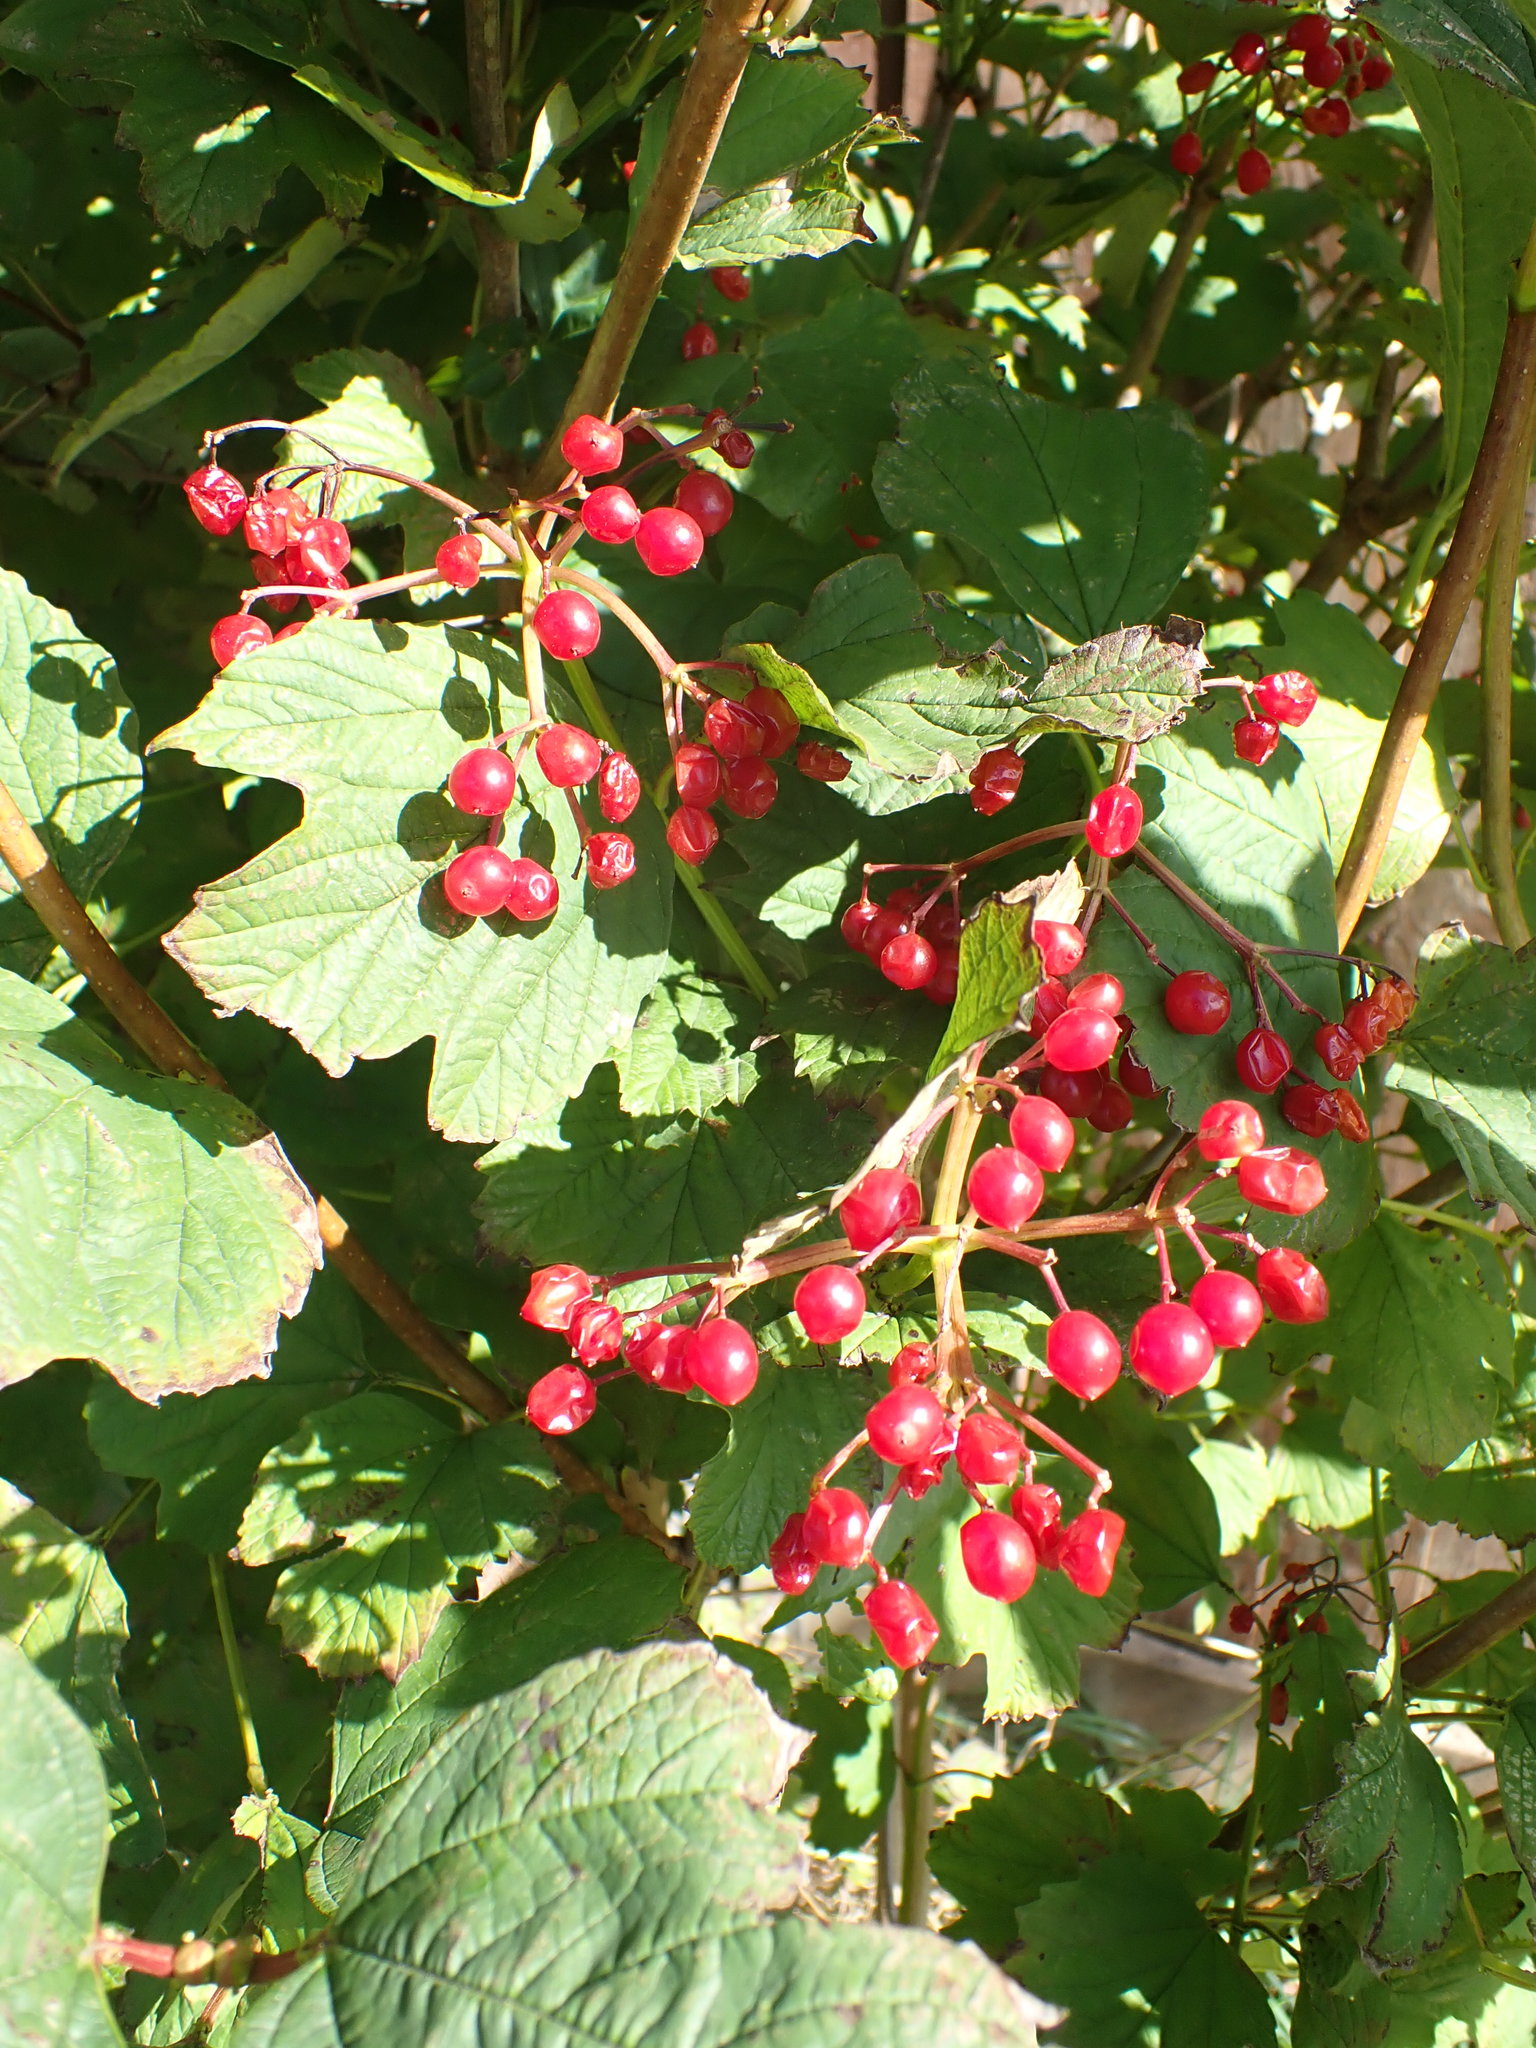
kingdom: Plantae
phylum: Tracheophyta
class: Magnoliopsida
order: Dipsacales
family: Viburnaceae
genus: Viburnum
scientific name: Viburnum opulus
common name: Guelder-rose
